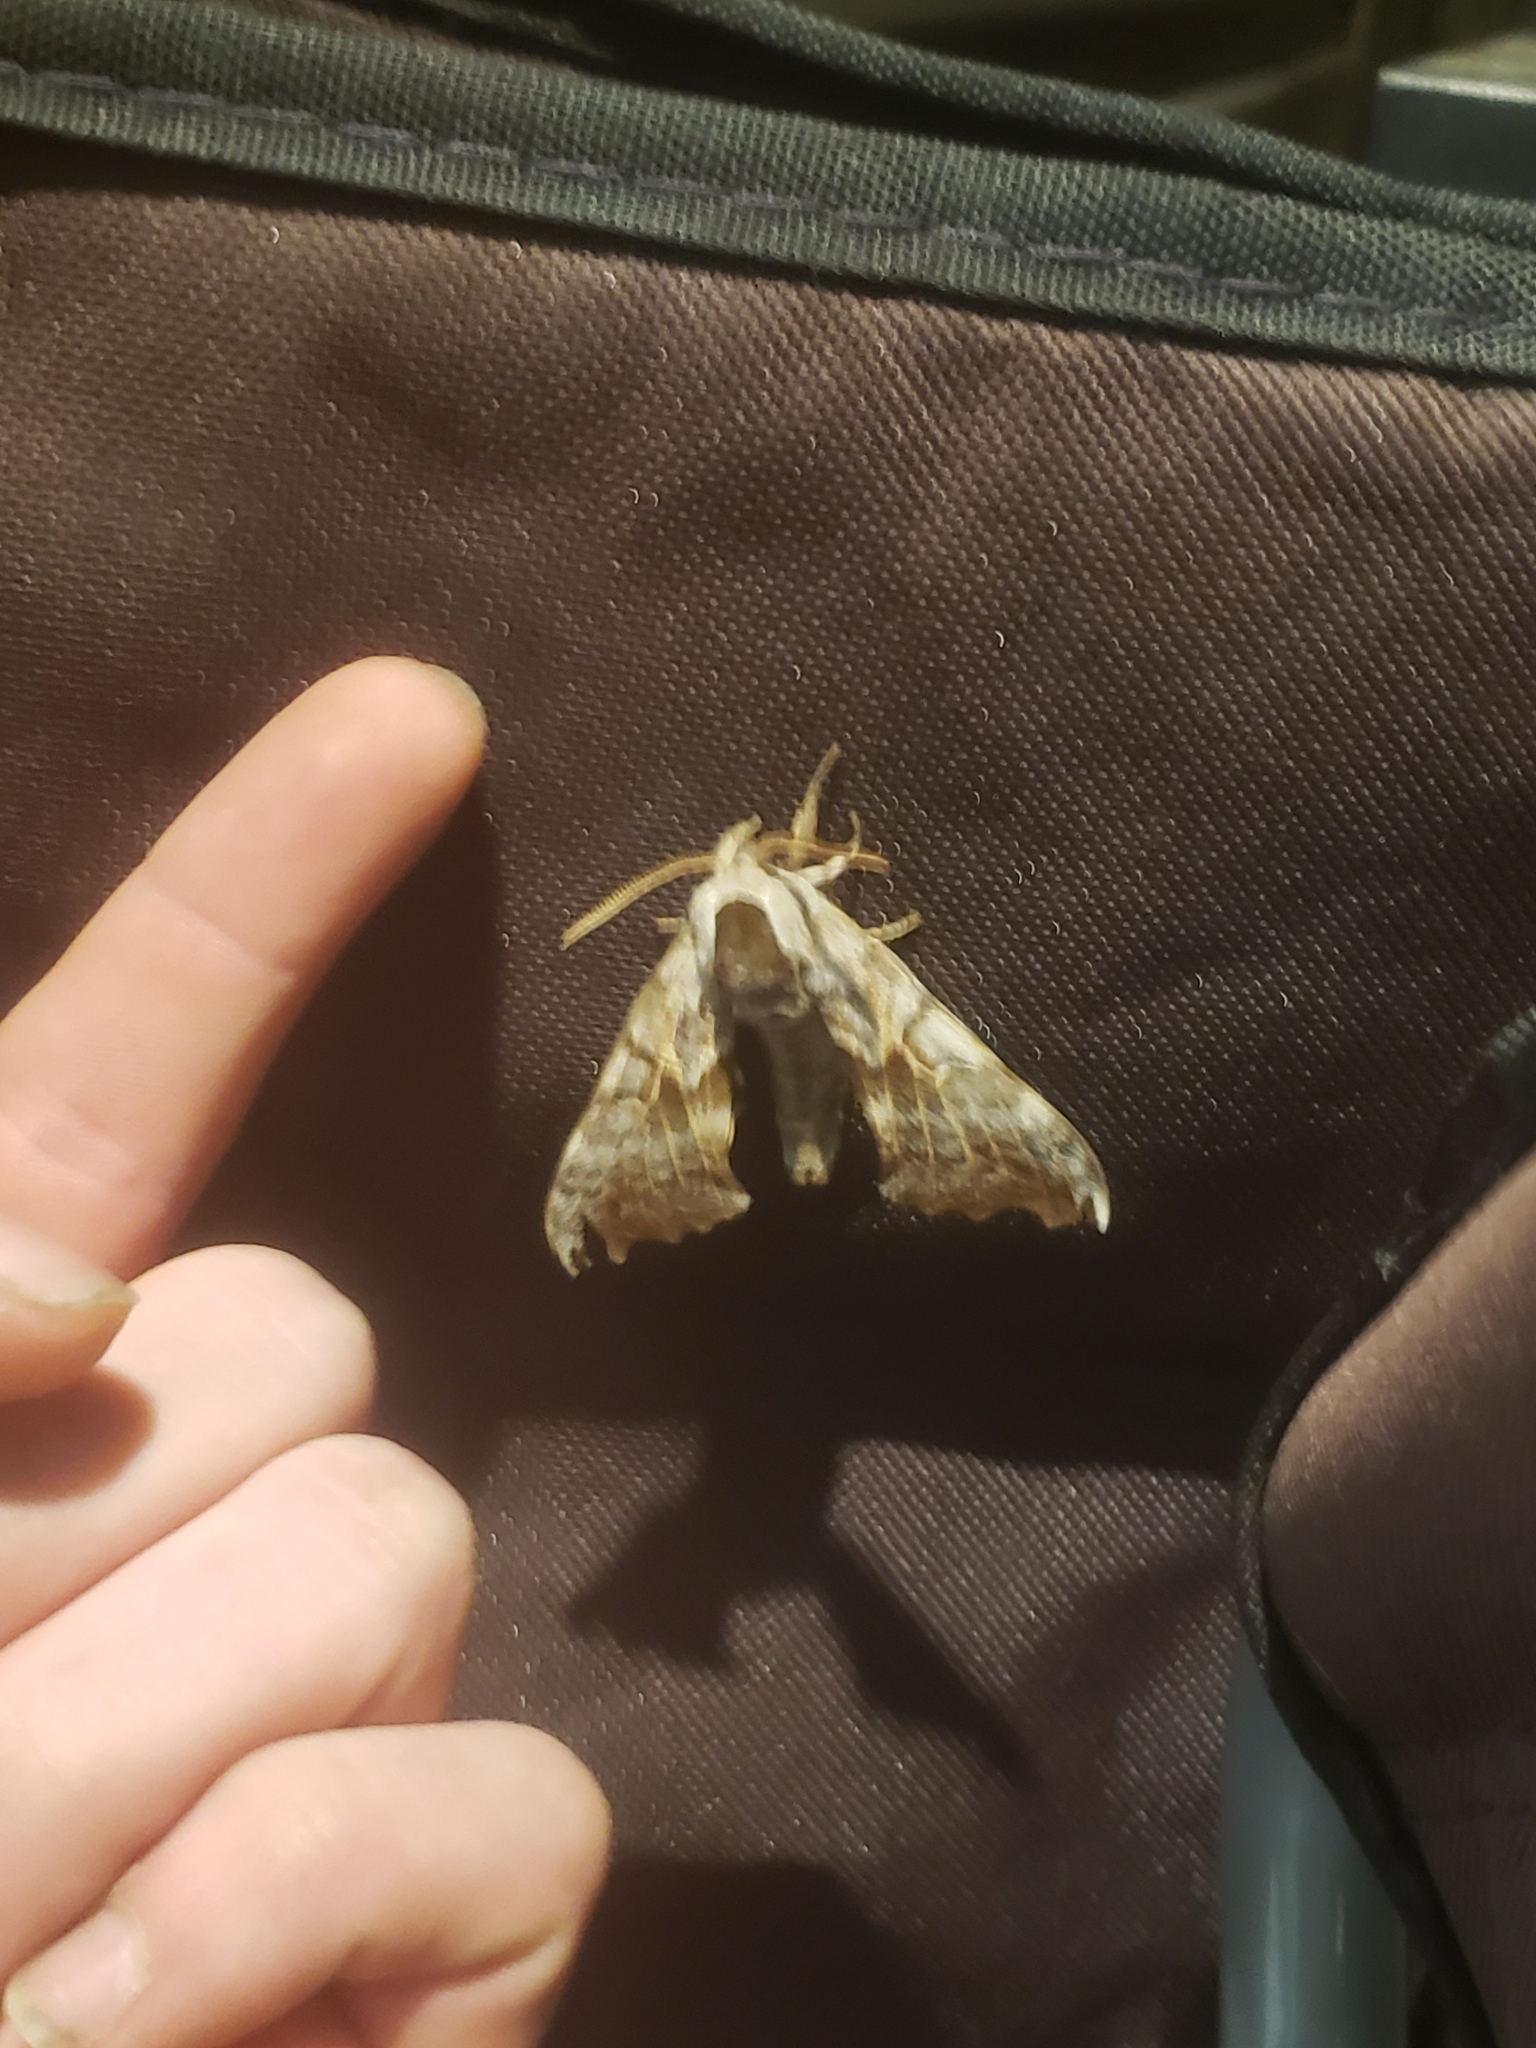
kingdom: Animalia
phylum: Arthropoda
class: Insecta
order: Lepidoptera
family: Sphingidae
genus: Smerinthus
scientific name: Smerinthus cerisyi
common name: Cerisy's sphinx moth
